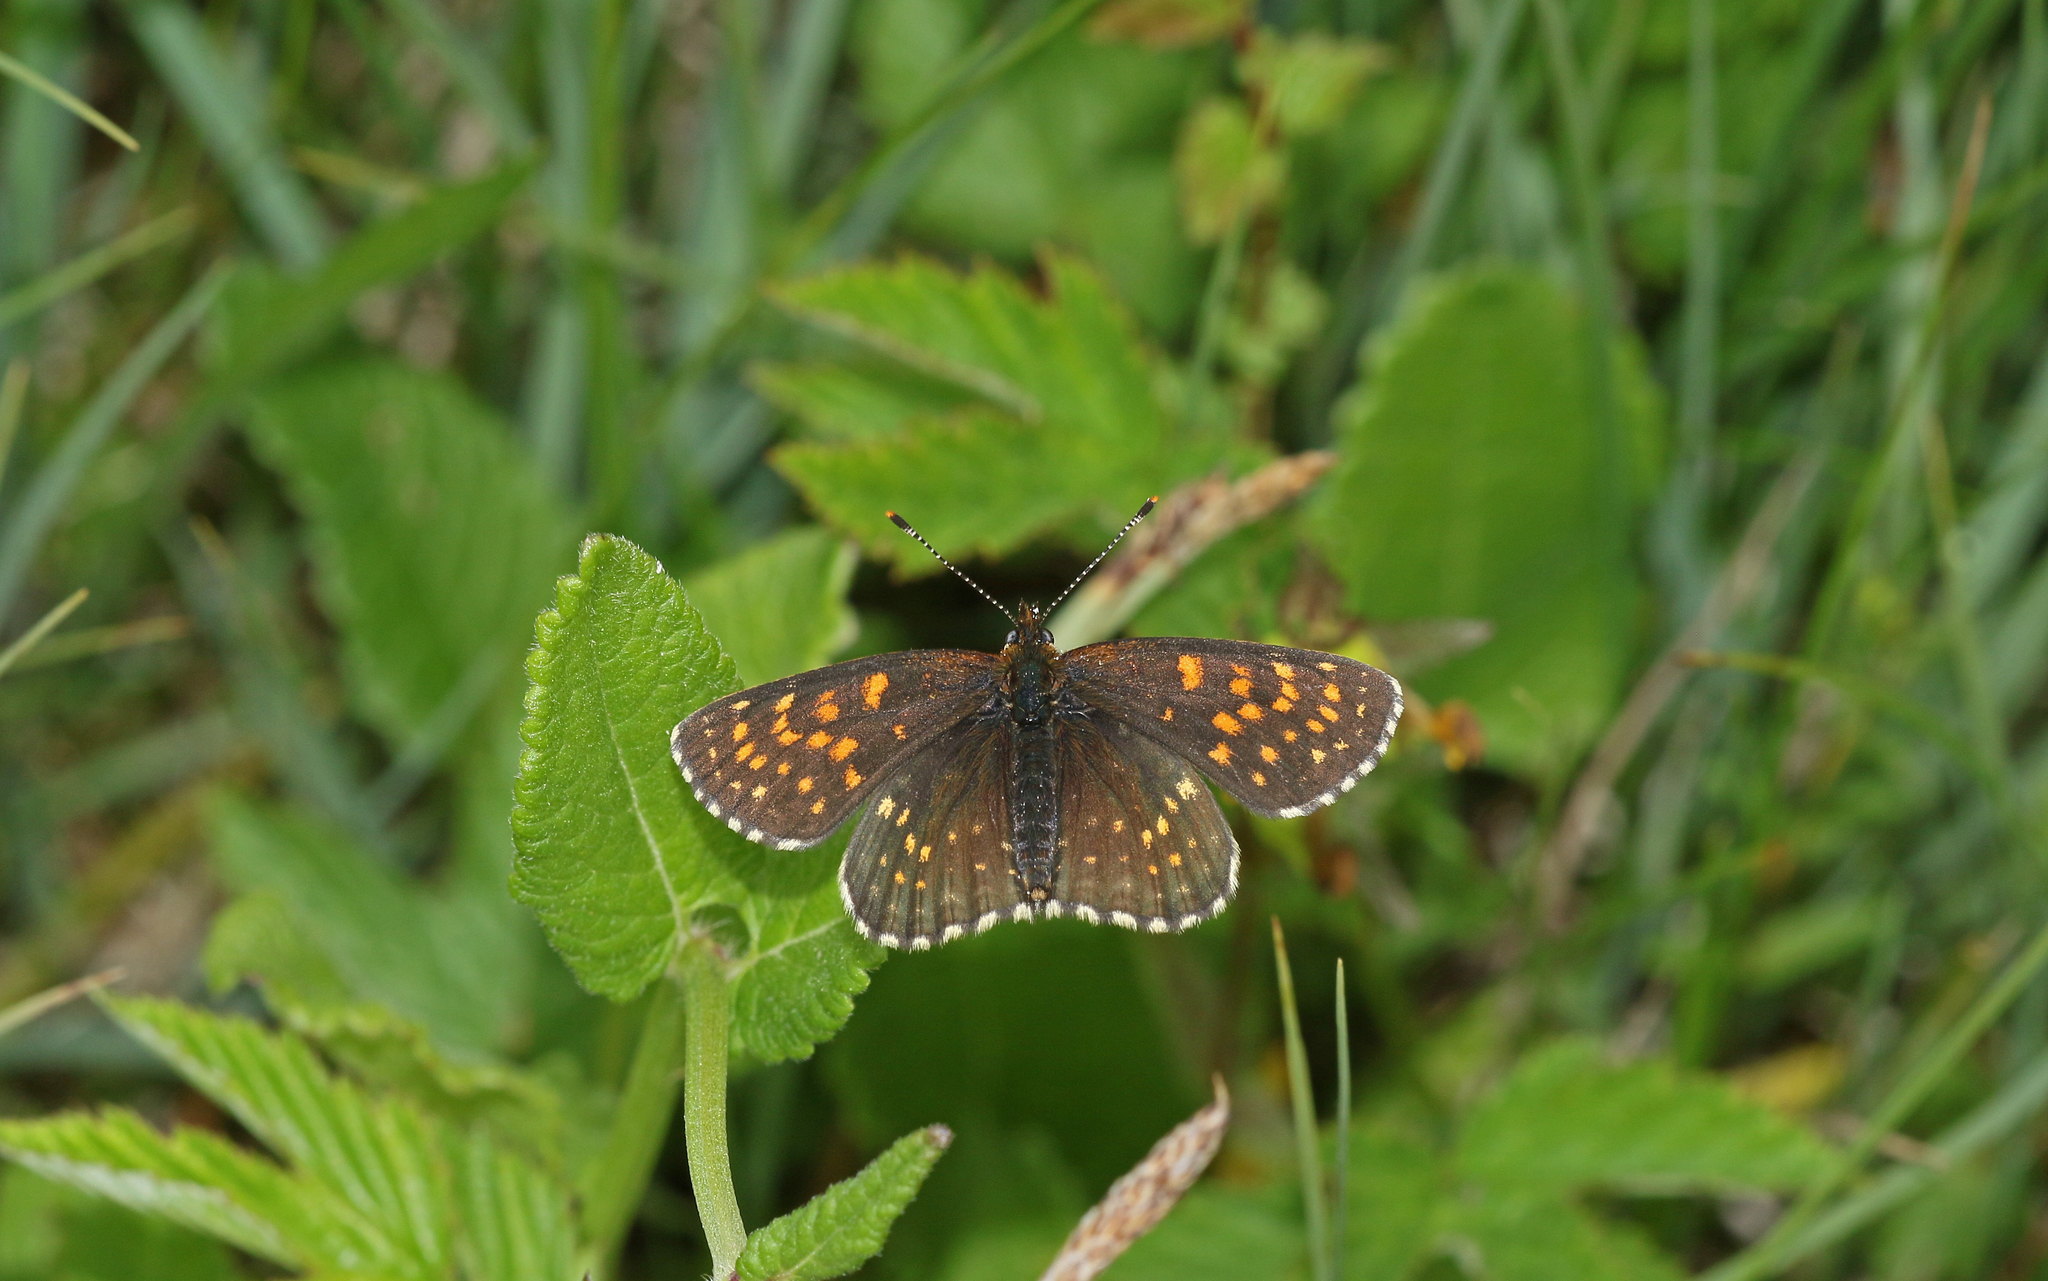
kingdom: Animalia
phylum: Arthropoda
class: Insecta
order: Lepidoptera
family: Nymphalidae
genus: Melitaea
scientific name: Melitaea diamina
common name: False heath fritillary
